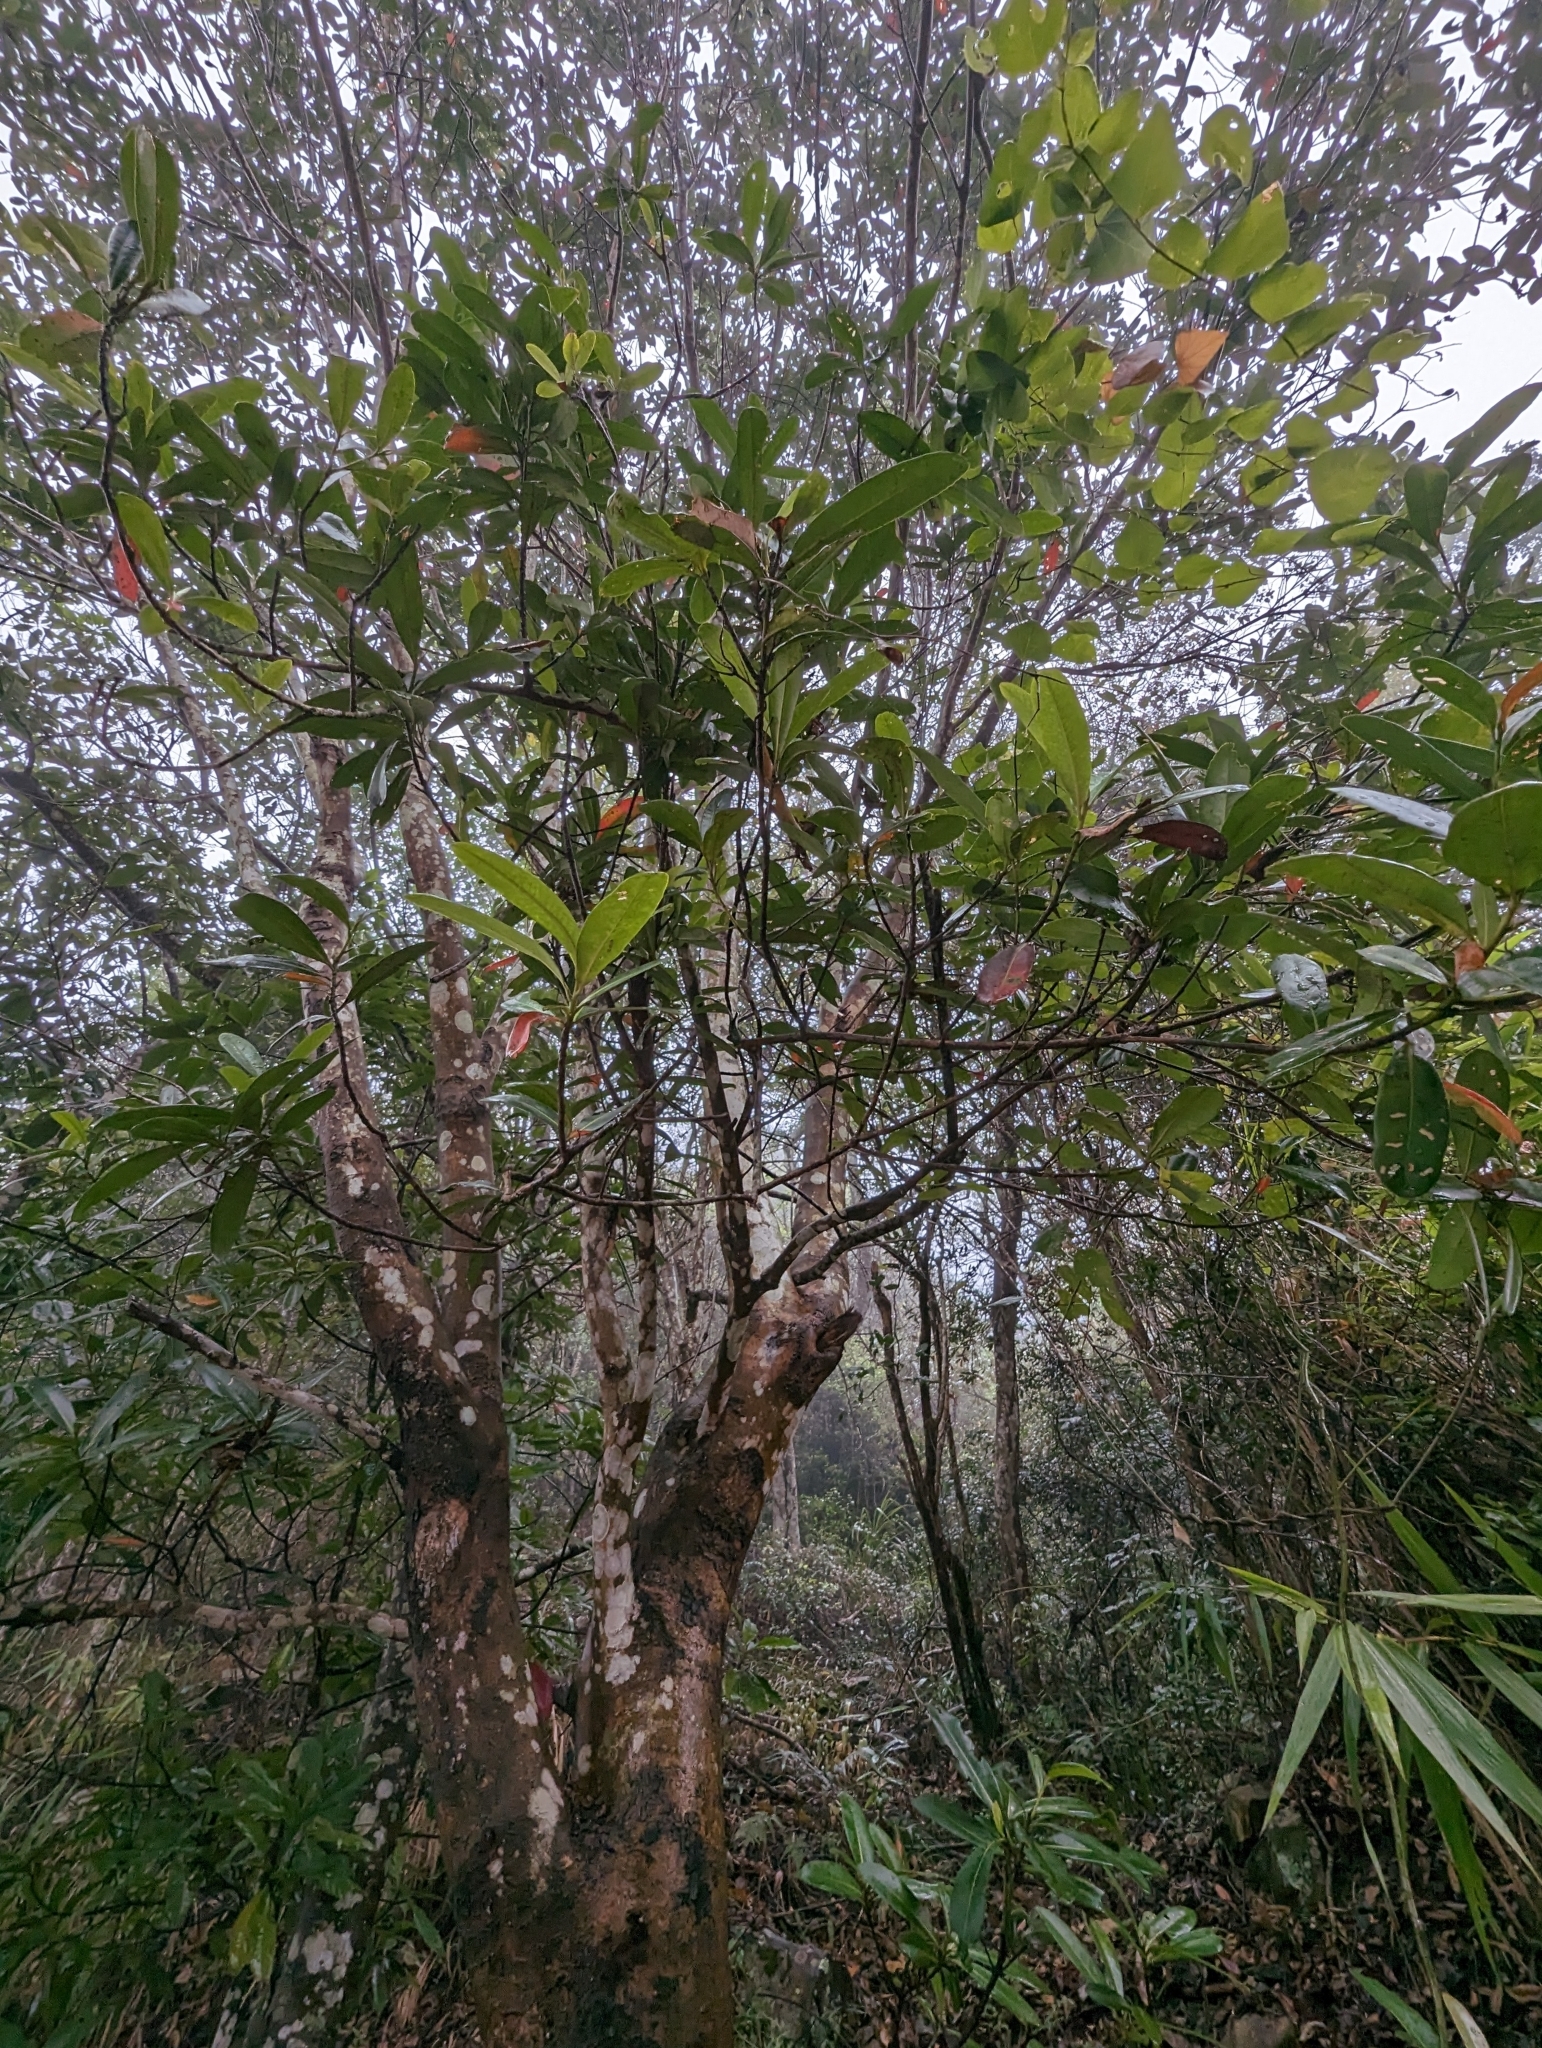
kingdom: Plantae
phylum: Tracheophyta
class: Magnoliopsida
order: Ericales
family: Theaceae
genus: Polyspora
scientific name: Polyspora axillaris
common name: Fried egg tree
